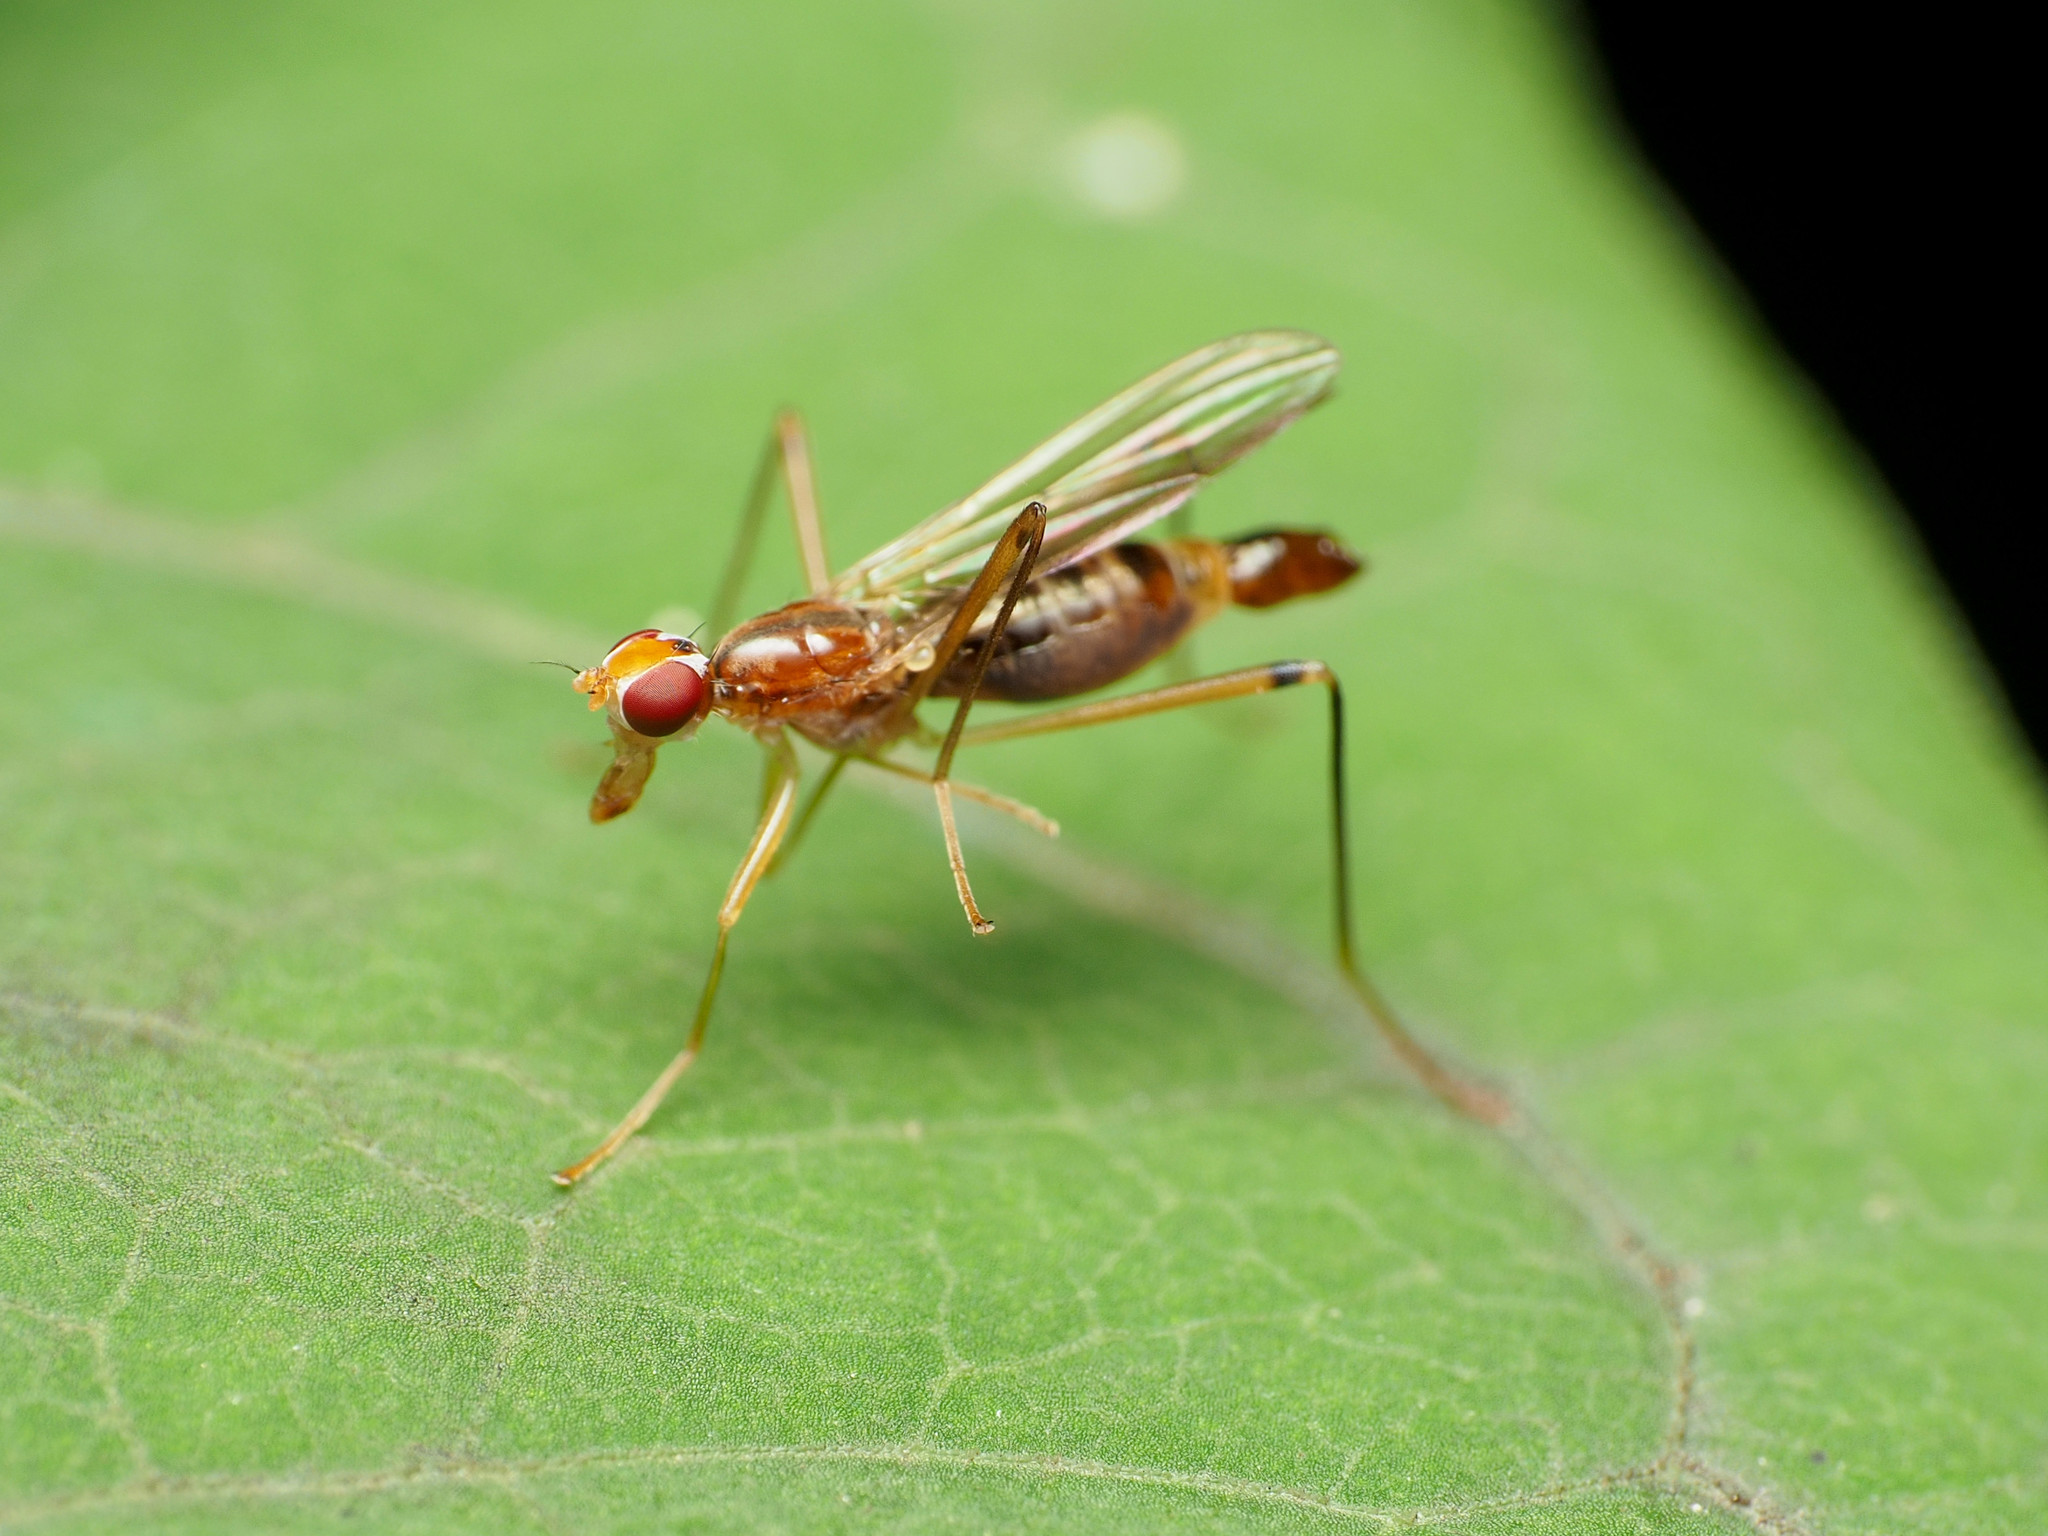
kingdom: Animalia
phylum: Arthropoda
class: Insecta
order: Diptera
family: Micropezidae
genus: Compsobata
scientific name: Compsobata univitta
